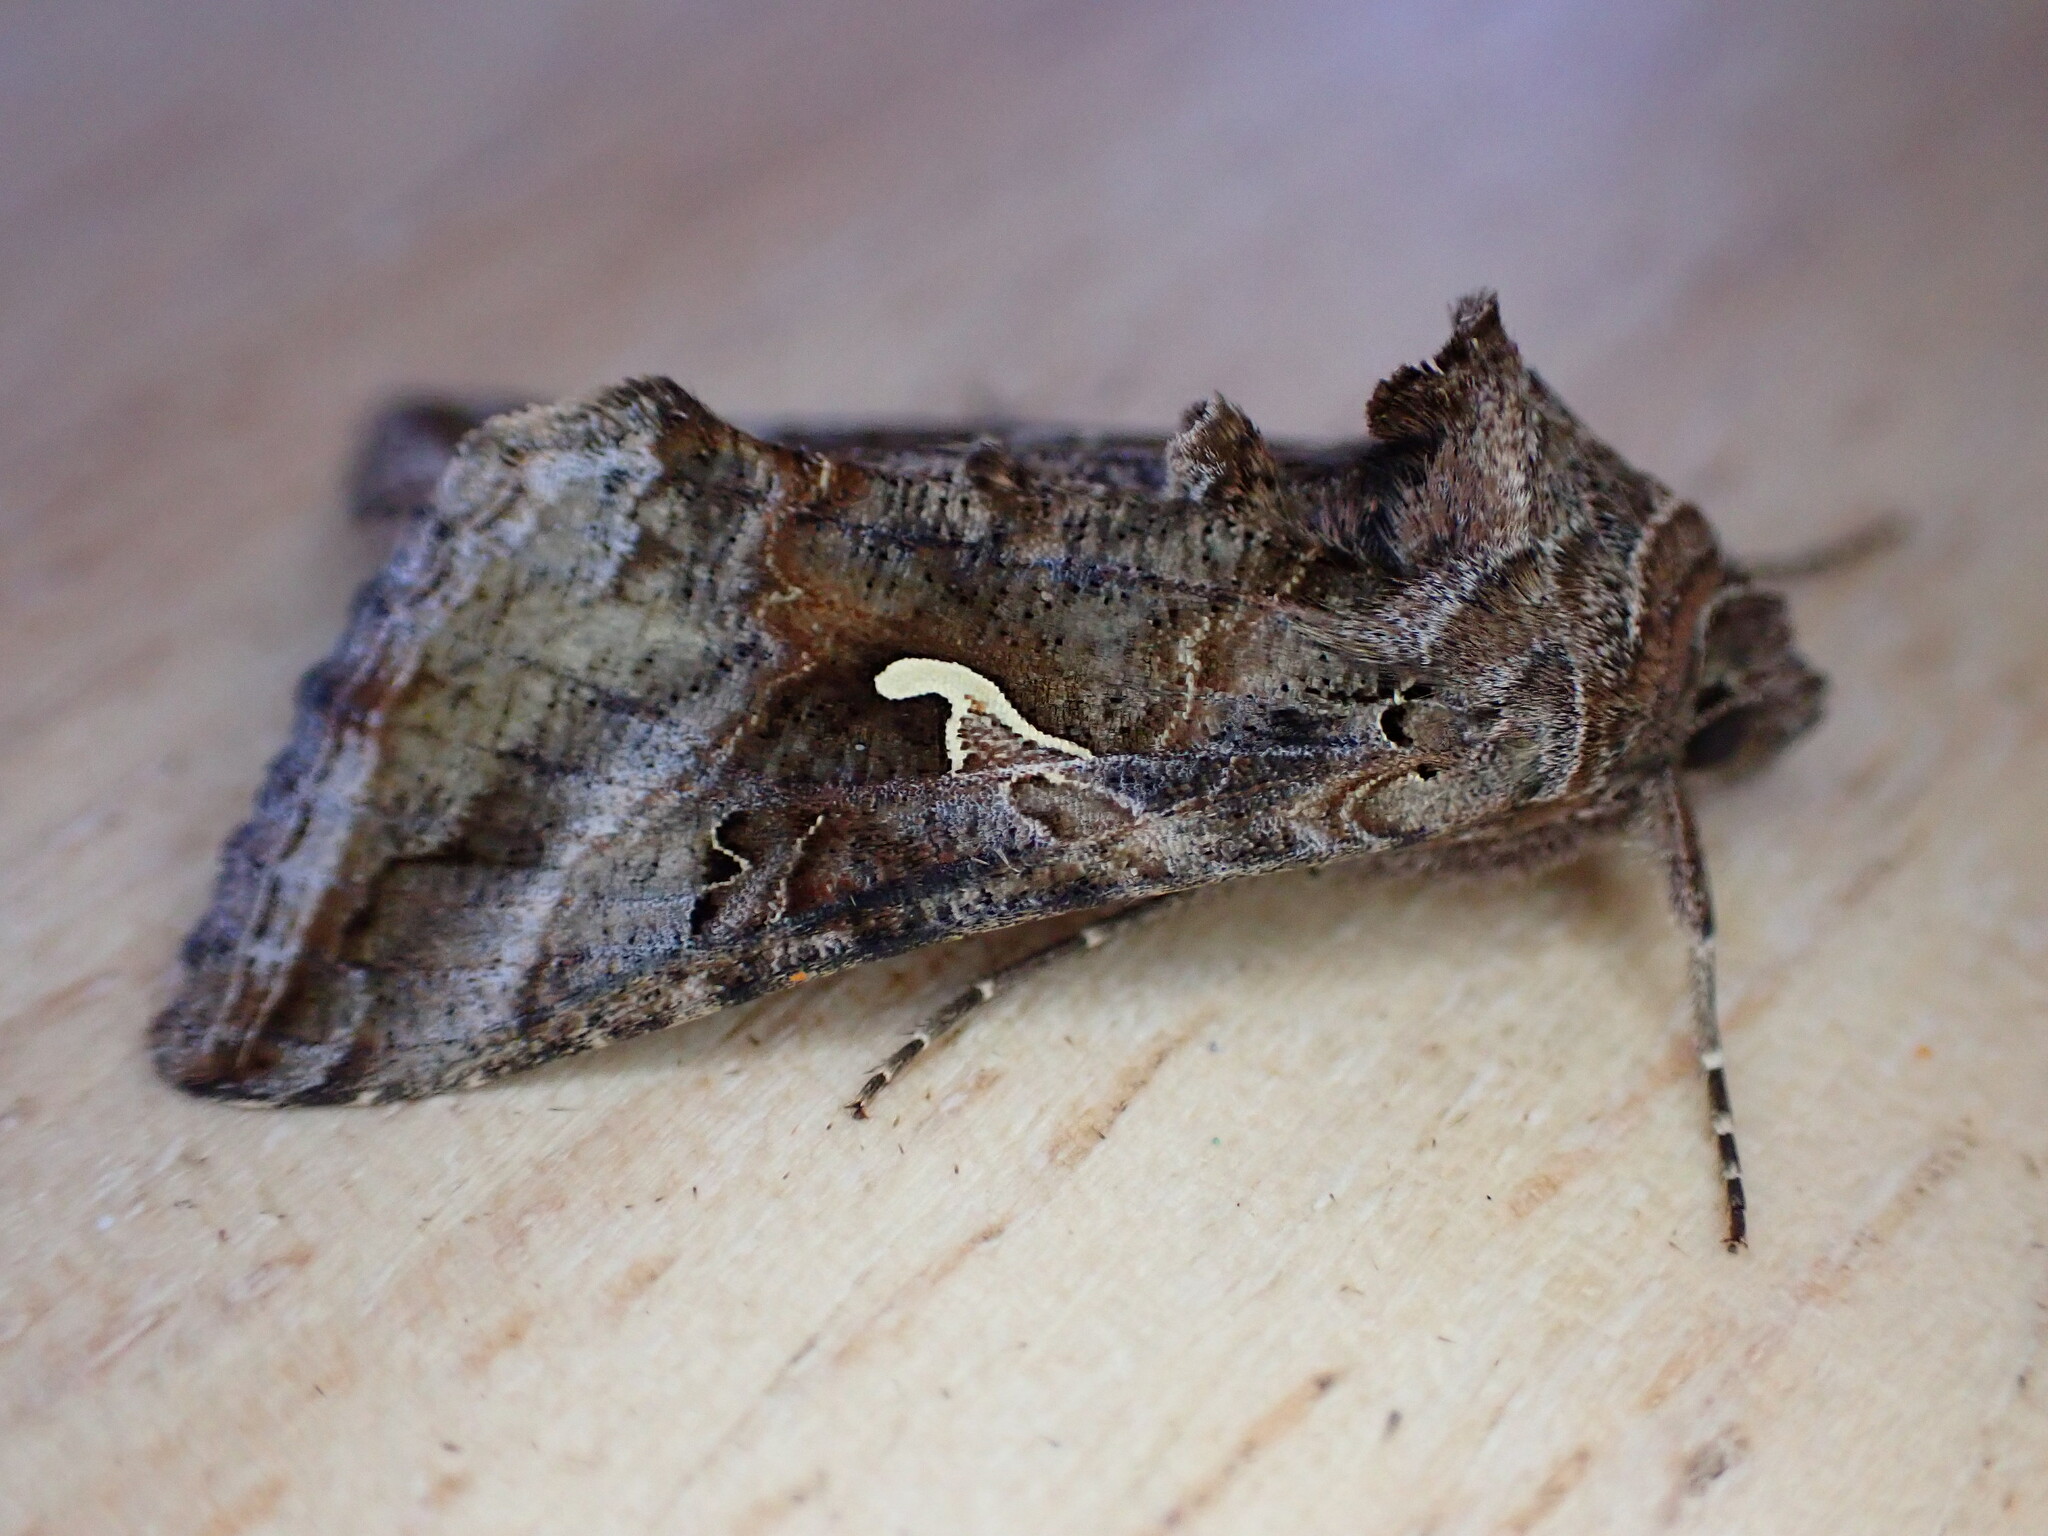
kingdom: Animalia
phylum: Arthropoda
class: Insecta
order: Lepidoptera
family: Noctuidae
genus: Autographa
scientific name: Autographa gamma
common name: Silver y
